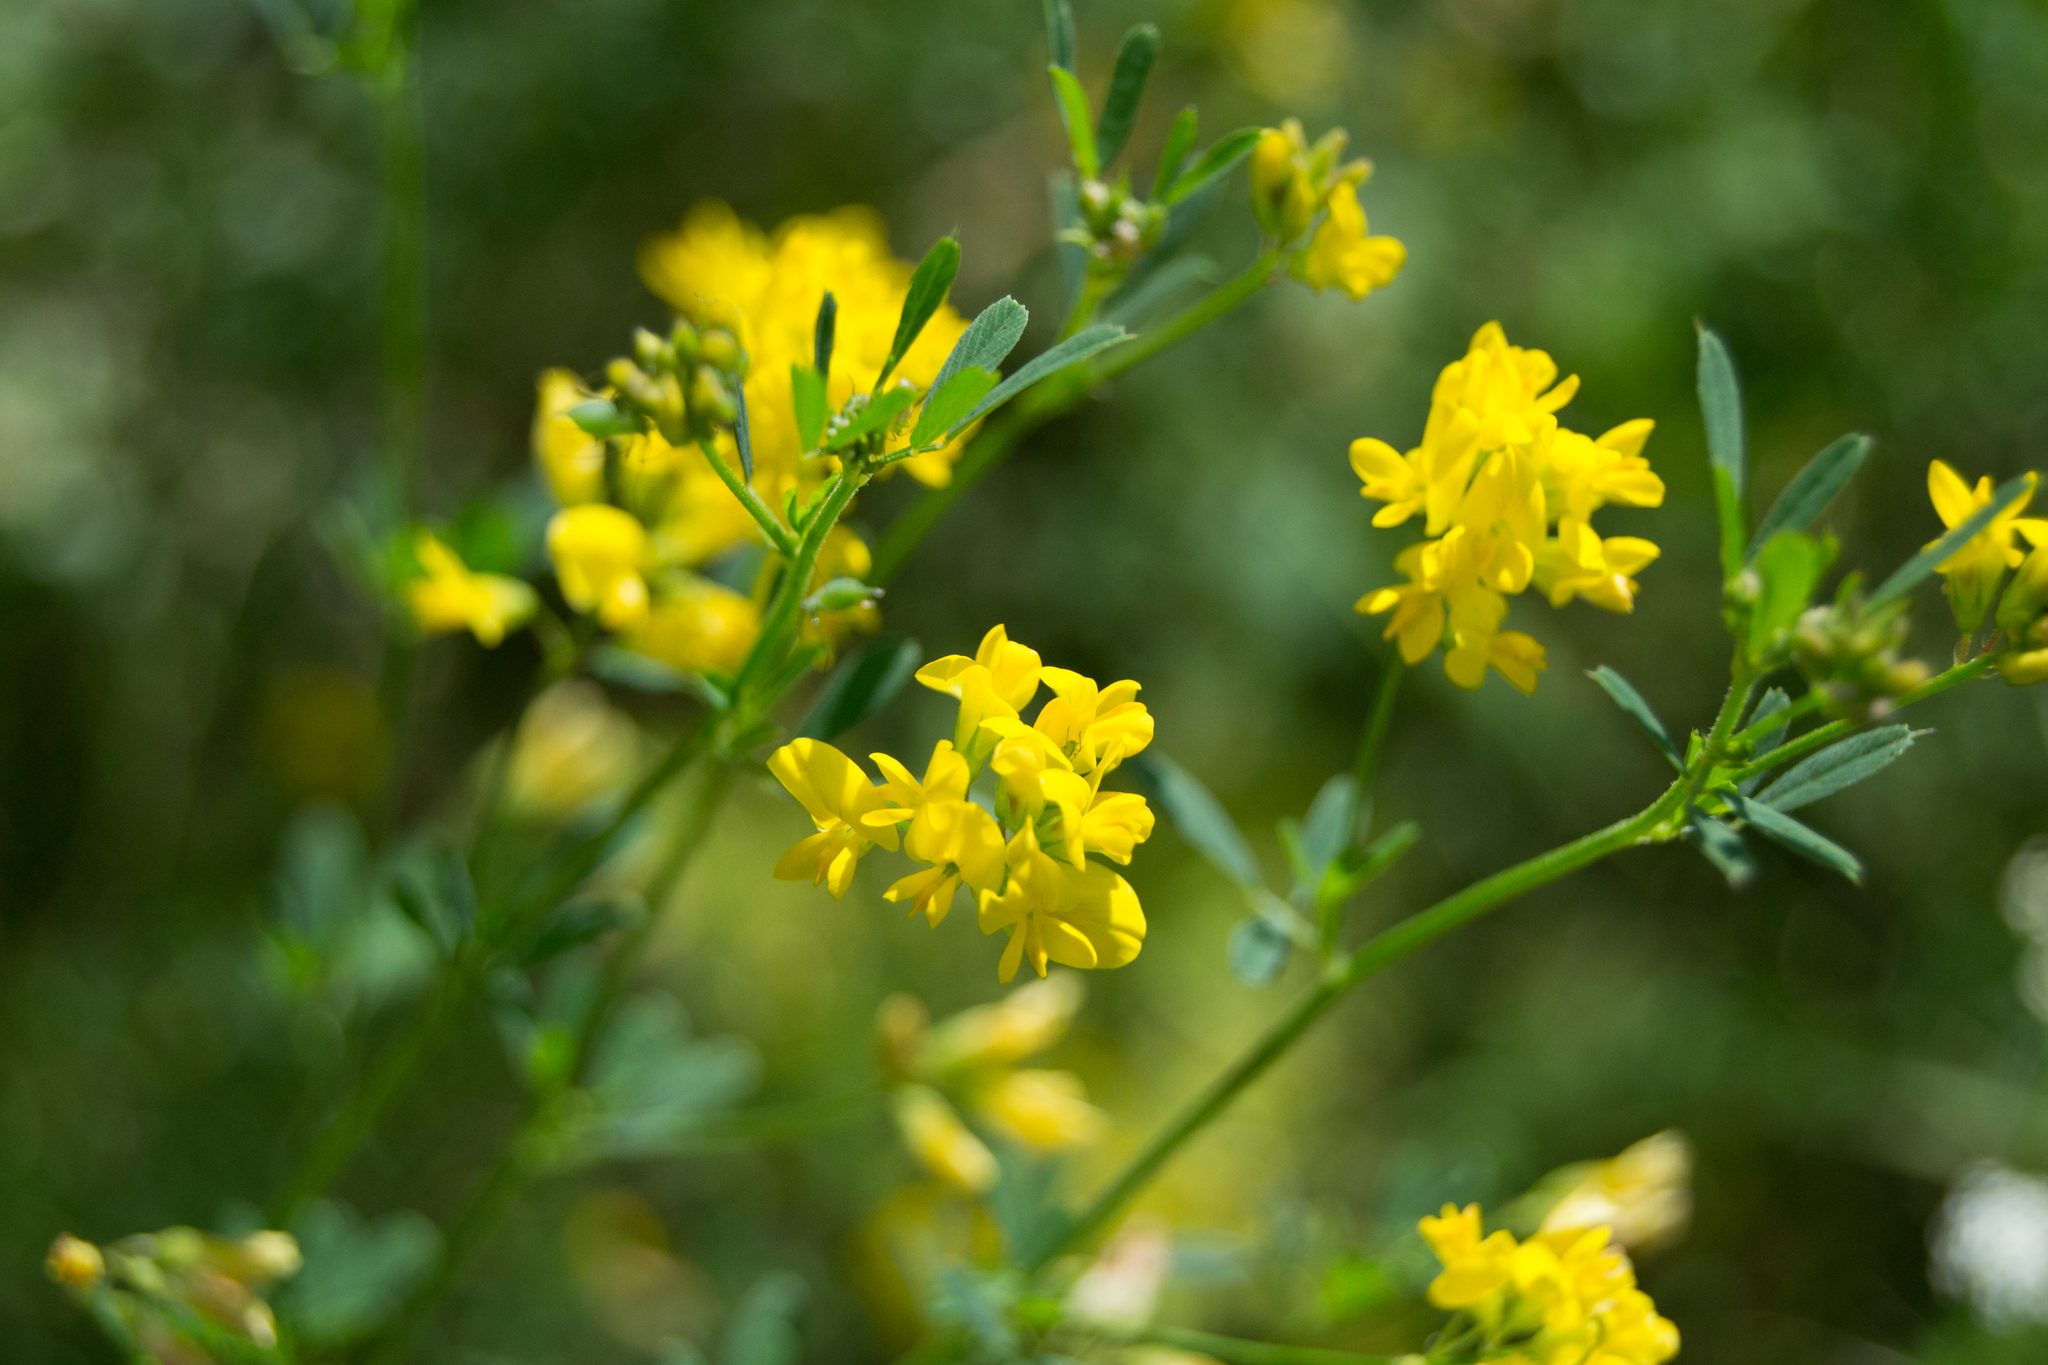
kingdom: Plantae
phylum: Tracheophyta
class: Magnoliopsida
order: Fabales
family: Fabaceae
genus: Medicago
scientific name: Medicago falcata
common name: Sickle medick
